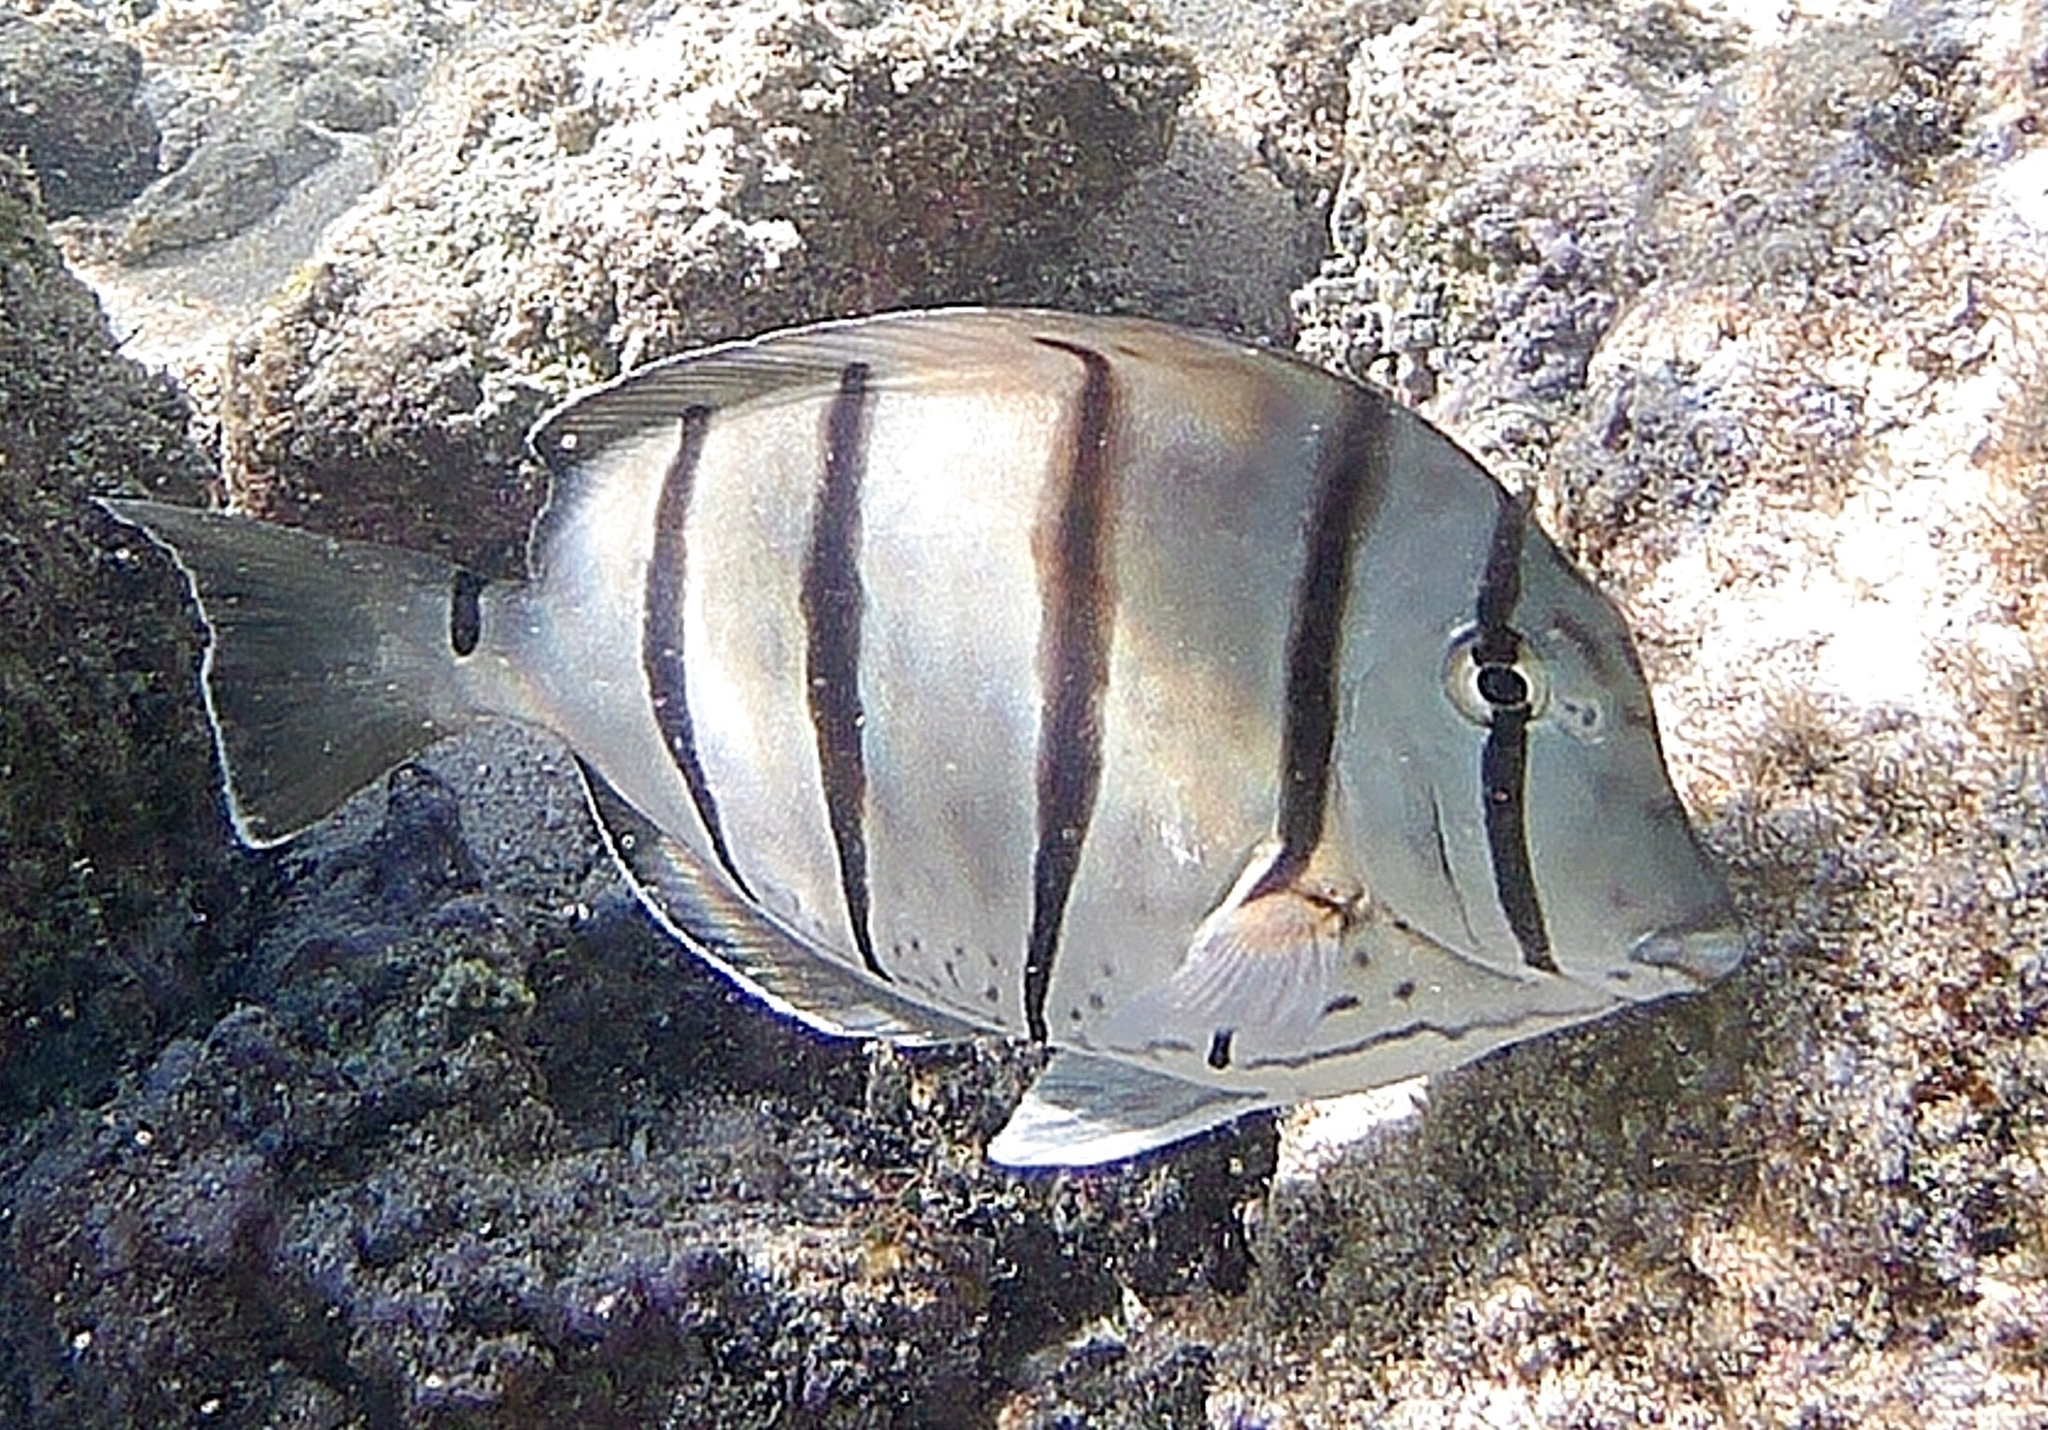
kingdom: Animalia
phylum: Chordata
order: Perciformes
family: Acanthuridae
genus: Acanthurus
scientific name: Acanthurus triostegus
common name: Convict surgeonfish
